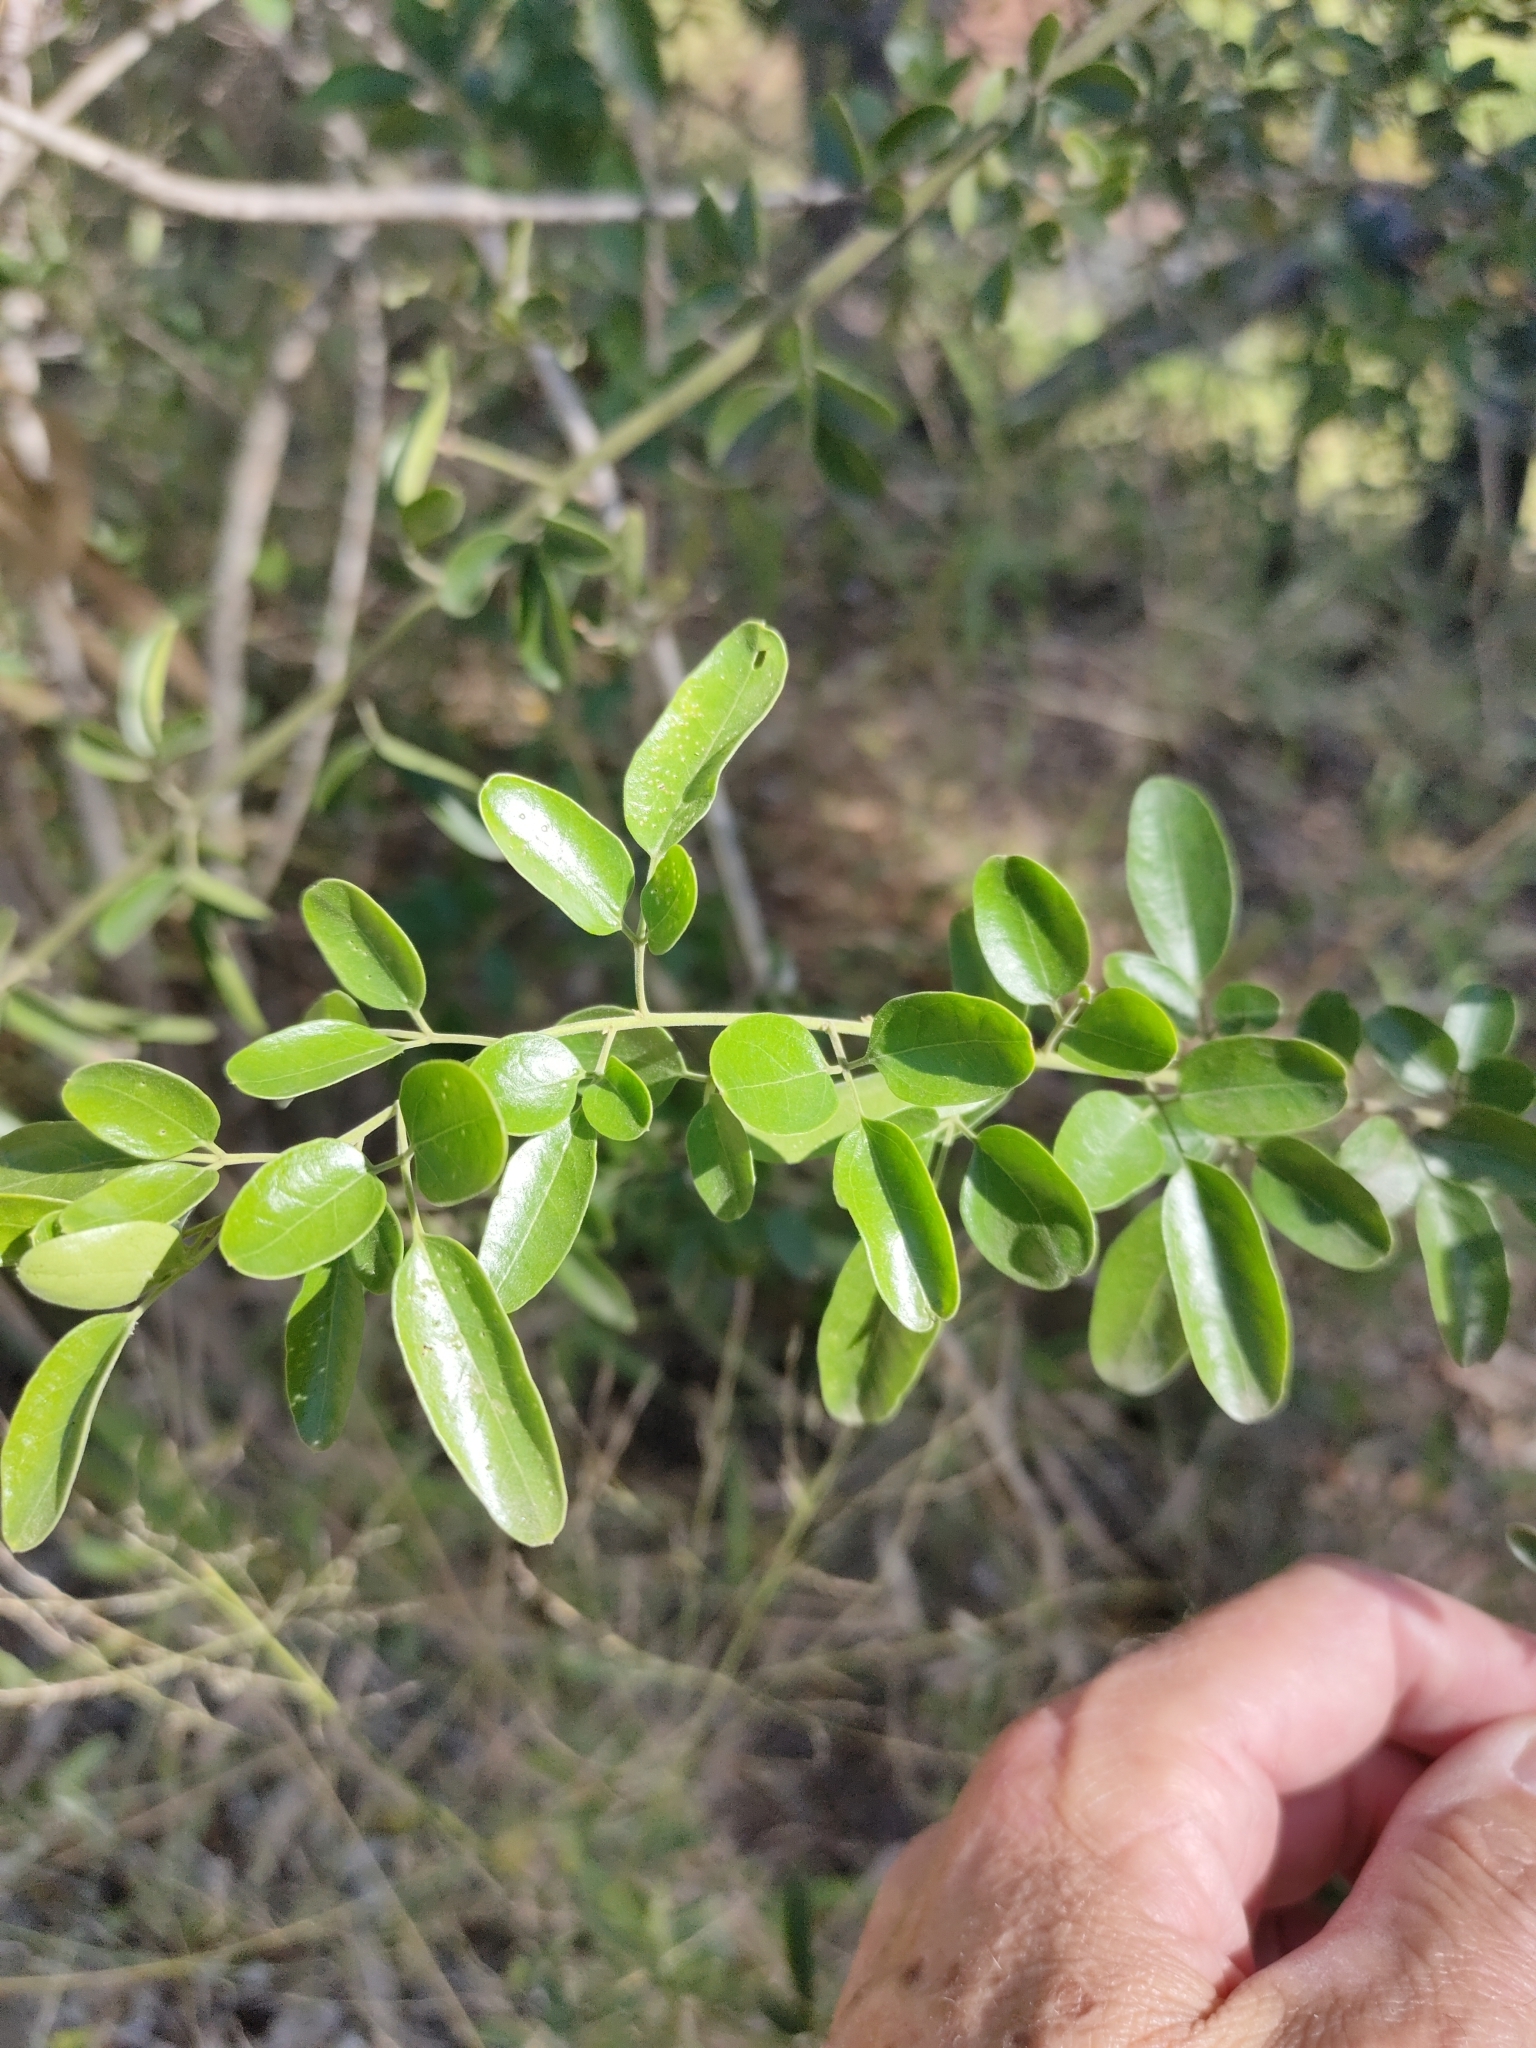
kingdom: Plantae
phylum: Tracheophyta
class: Magnoliopsida
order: Lamiales
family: Oleaceae
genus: Jasminum
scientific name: Jasminum didymum
